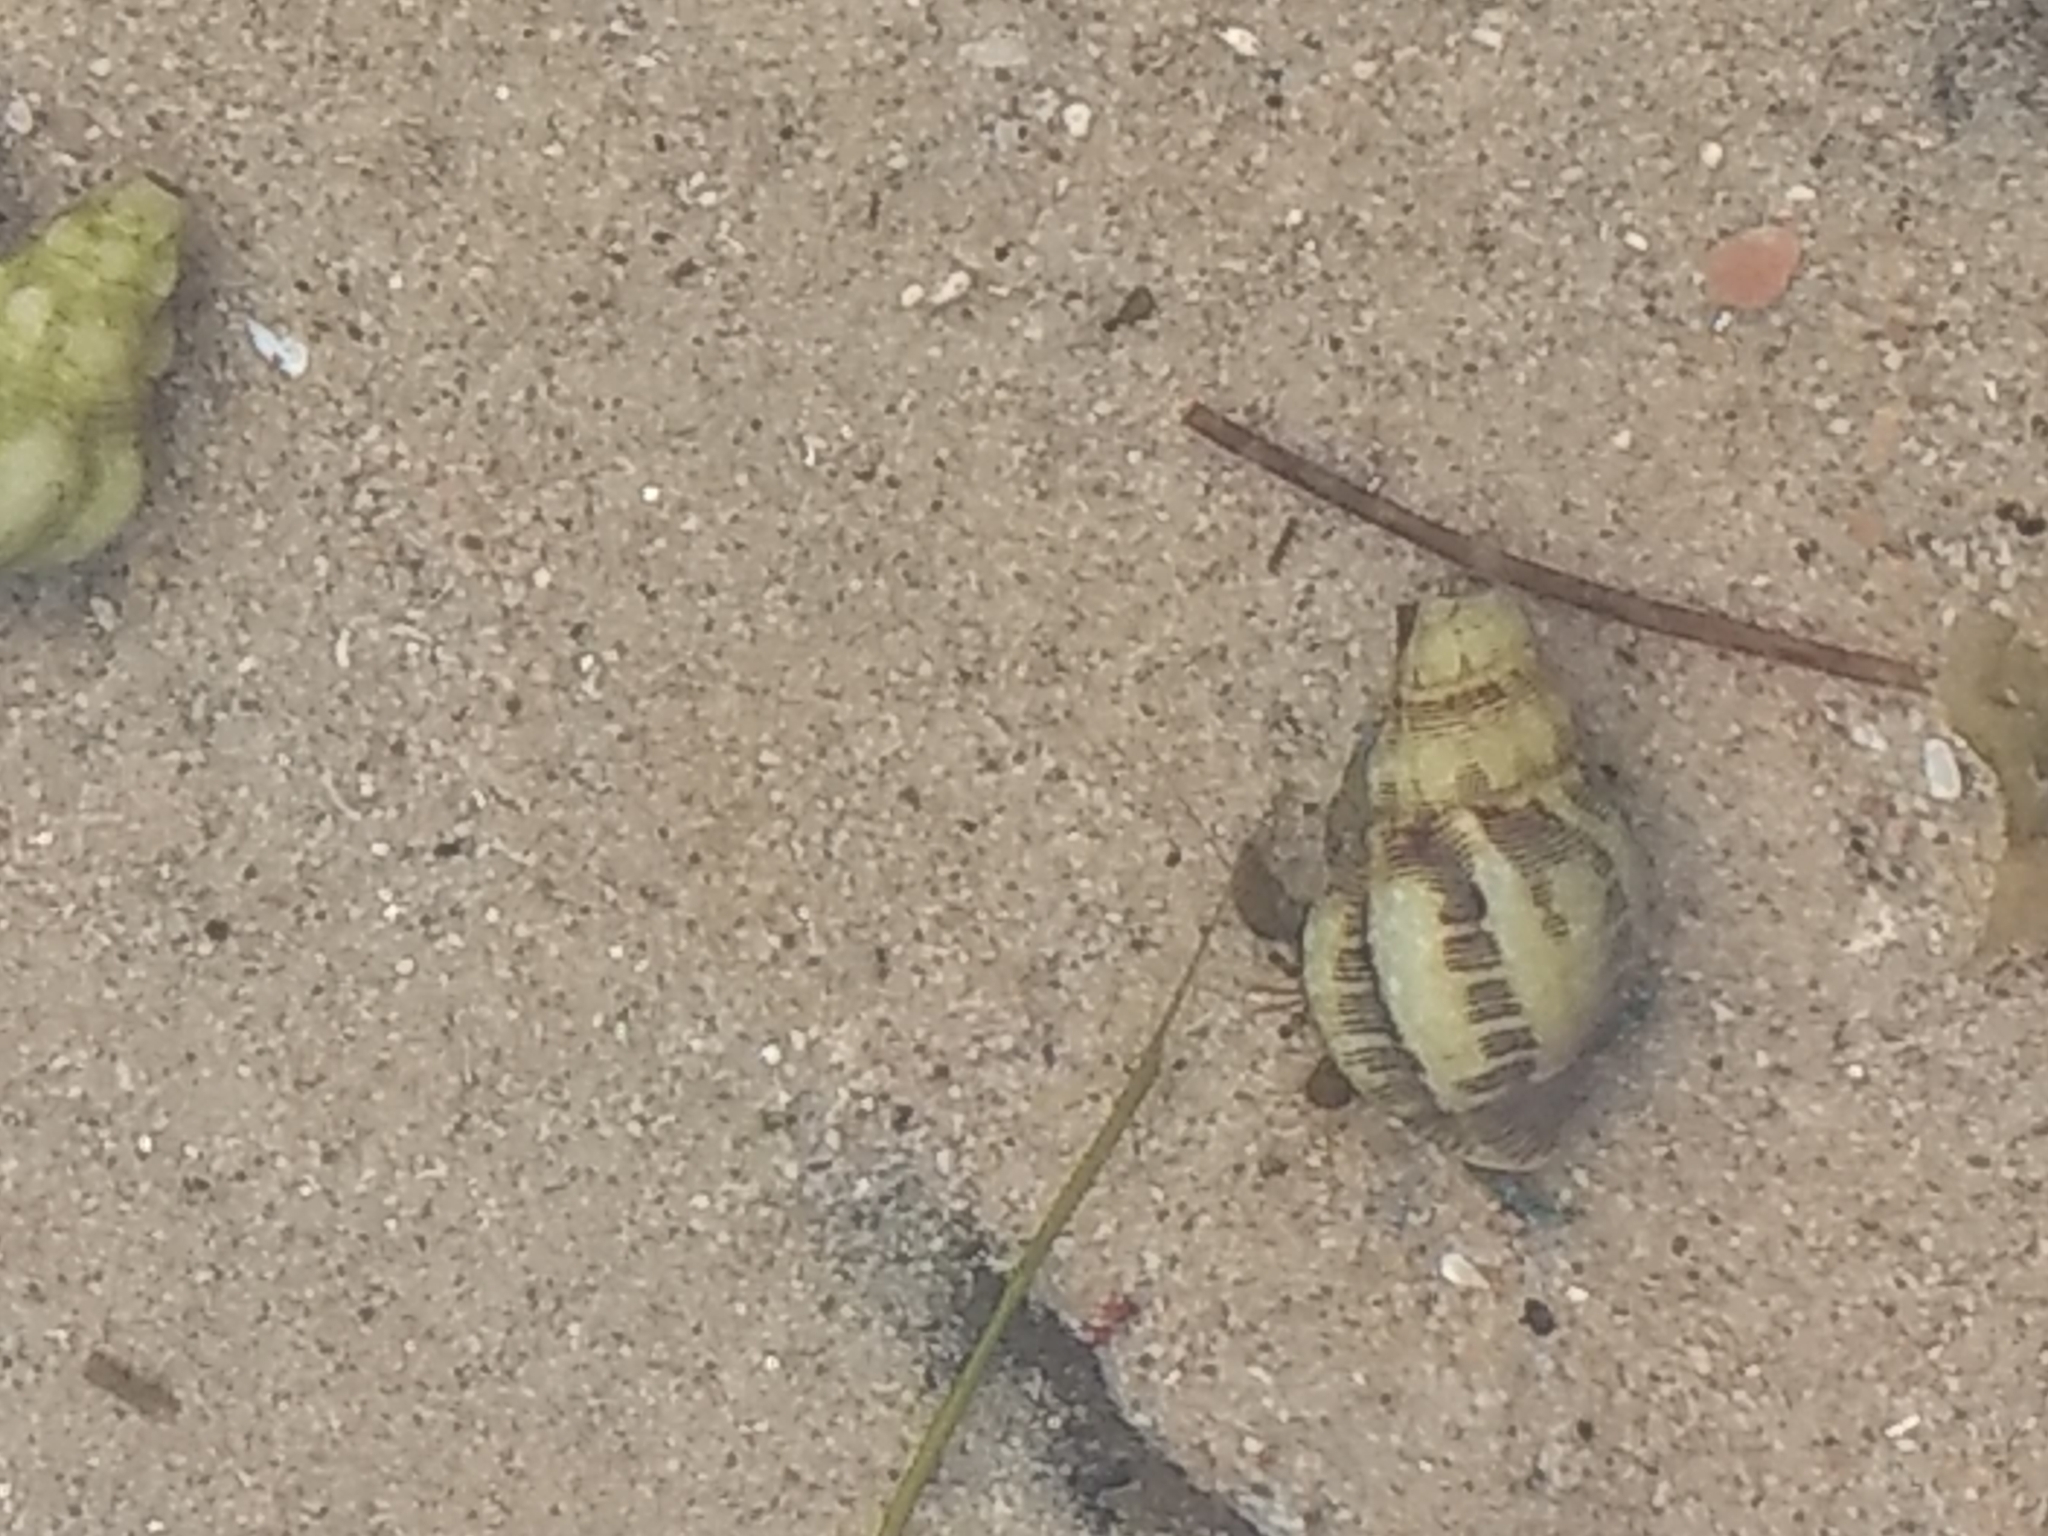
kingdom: Animalia
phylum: Mollusca
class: Gastropoda
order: Neogastropoda
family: Muricidae
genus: Roperia
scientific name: Roperia poulsoni
